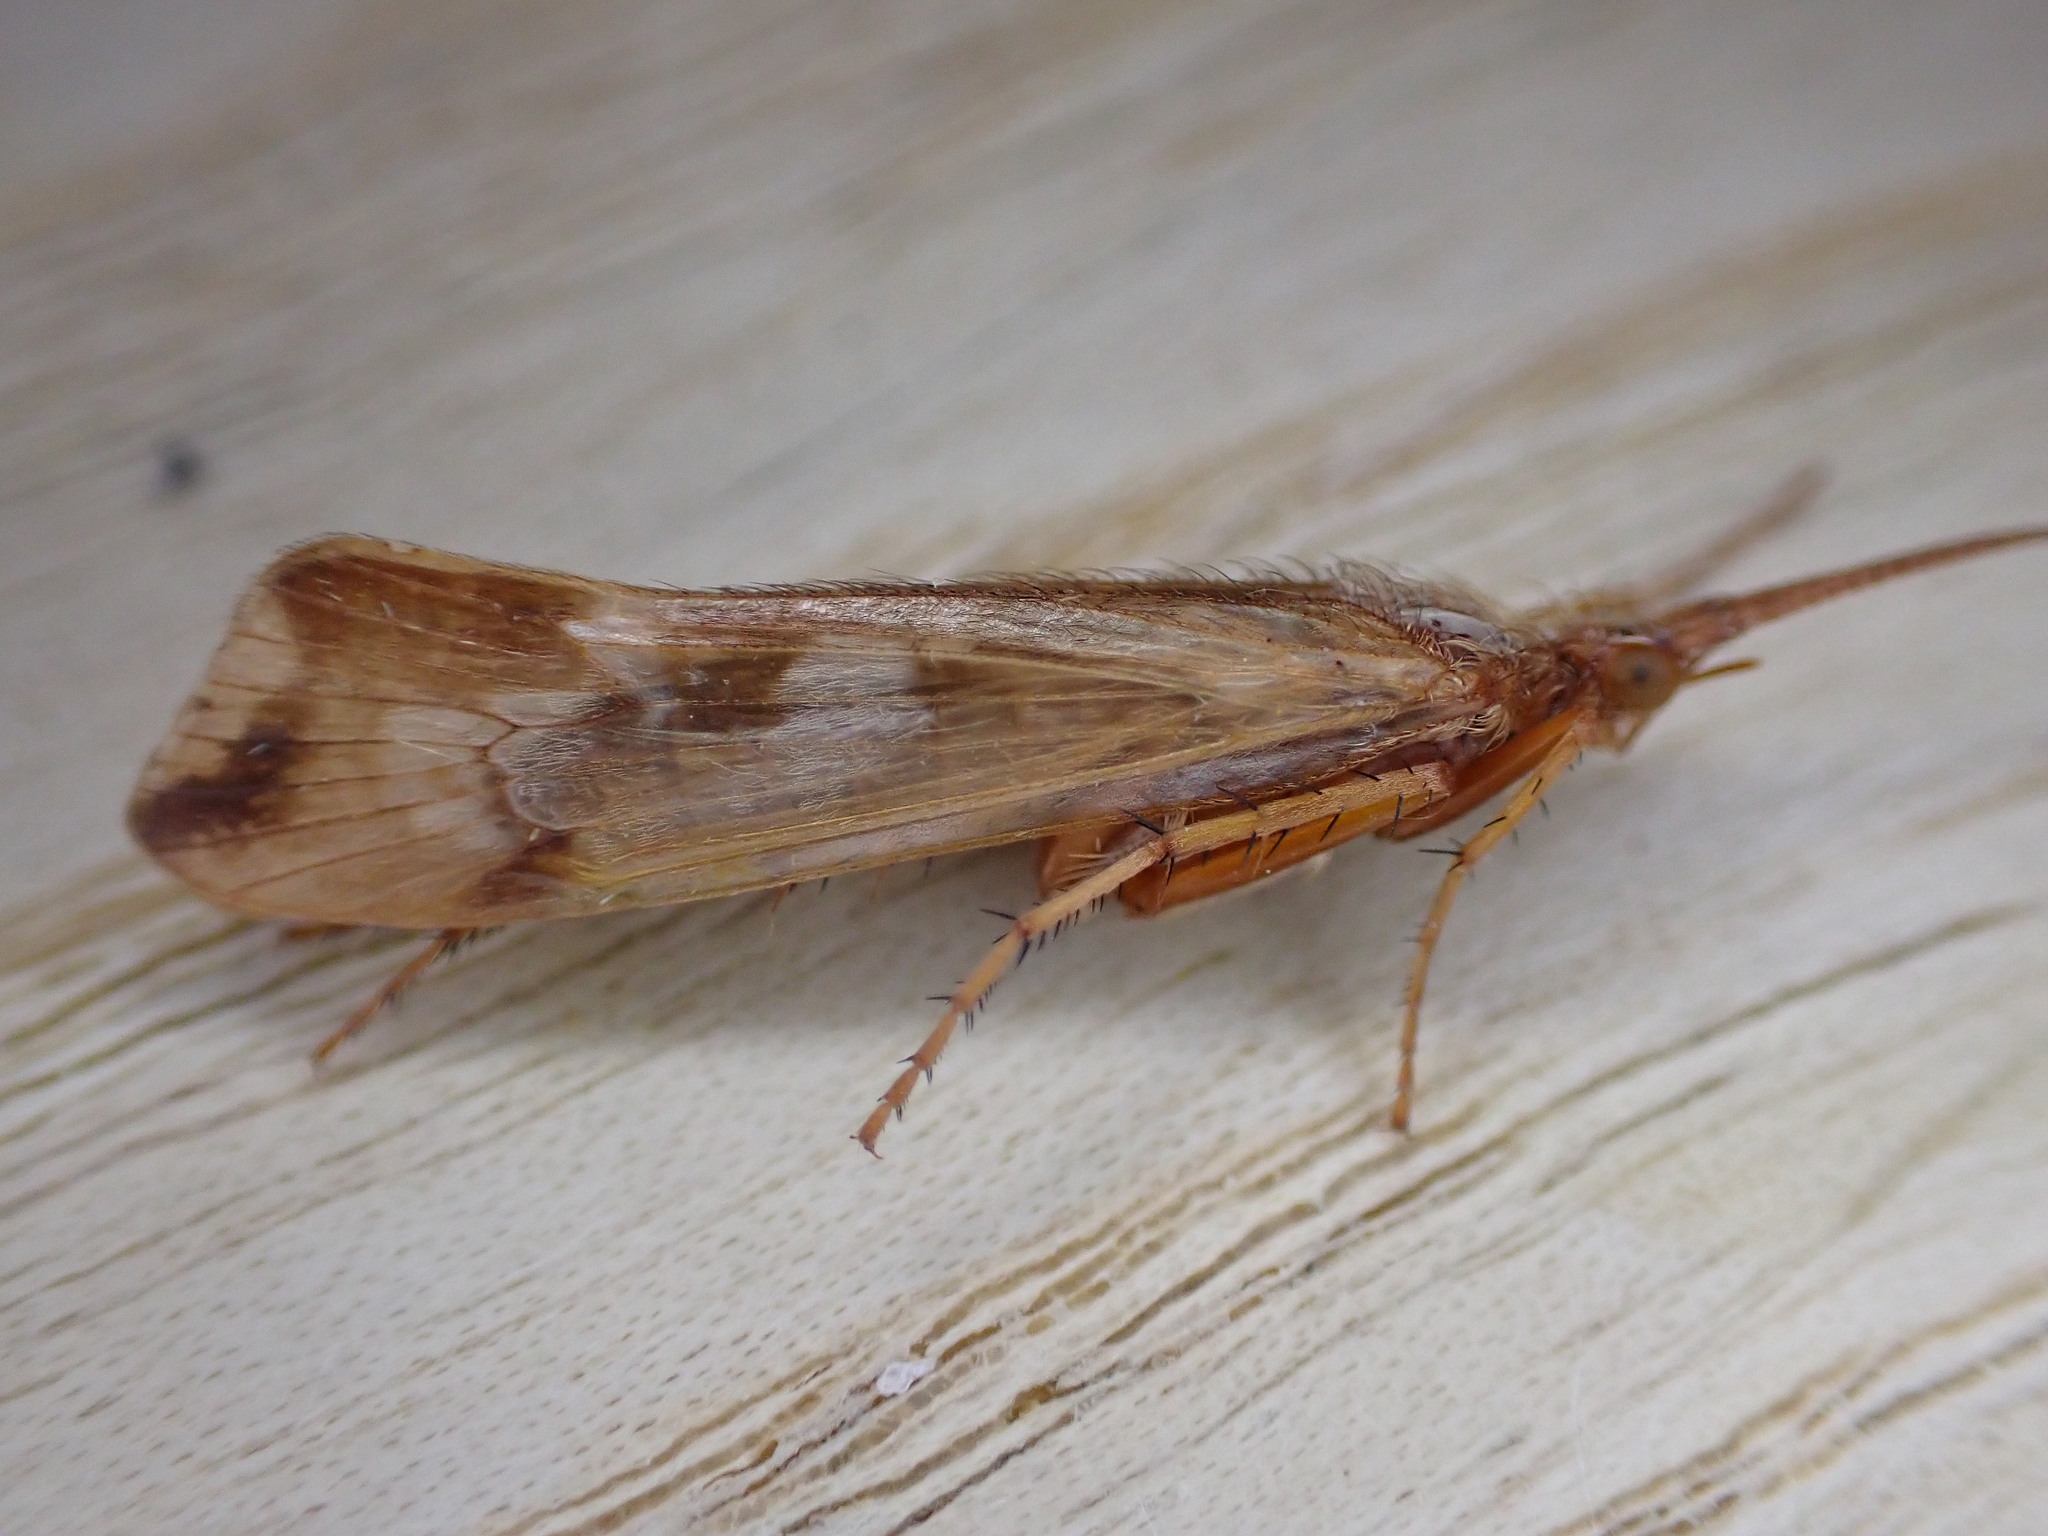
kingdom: Animalia
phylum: Arthropoda
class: Insecta
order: Trichoptera
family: Limnephilidae
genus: Limnephilus
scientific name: Limnephilus lunatus
